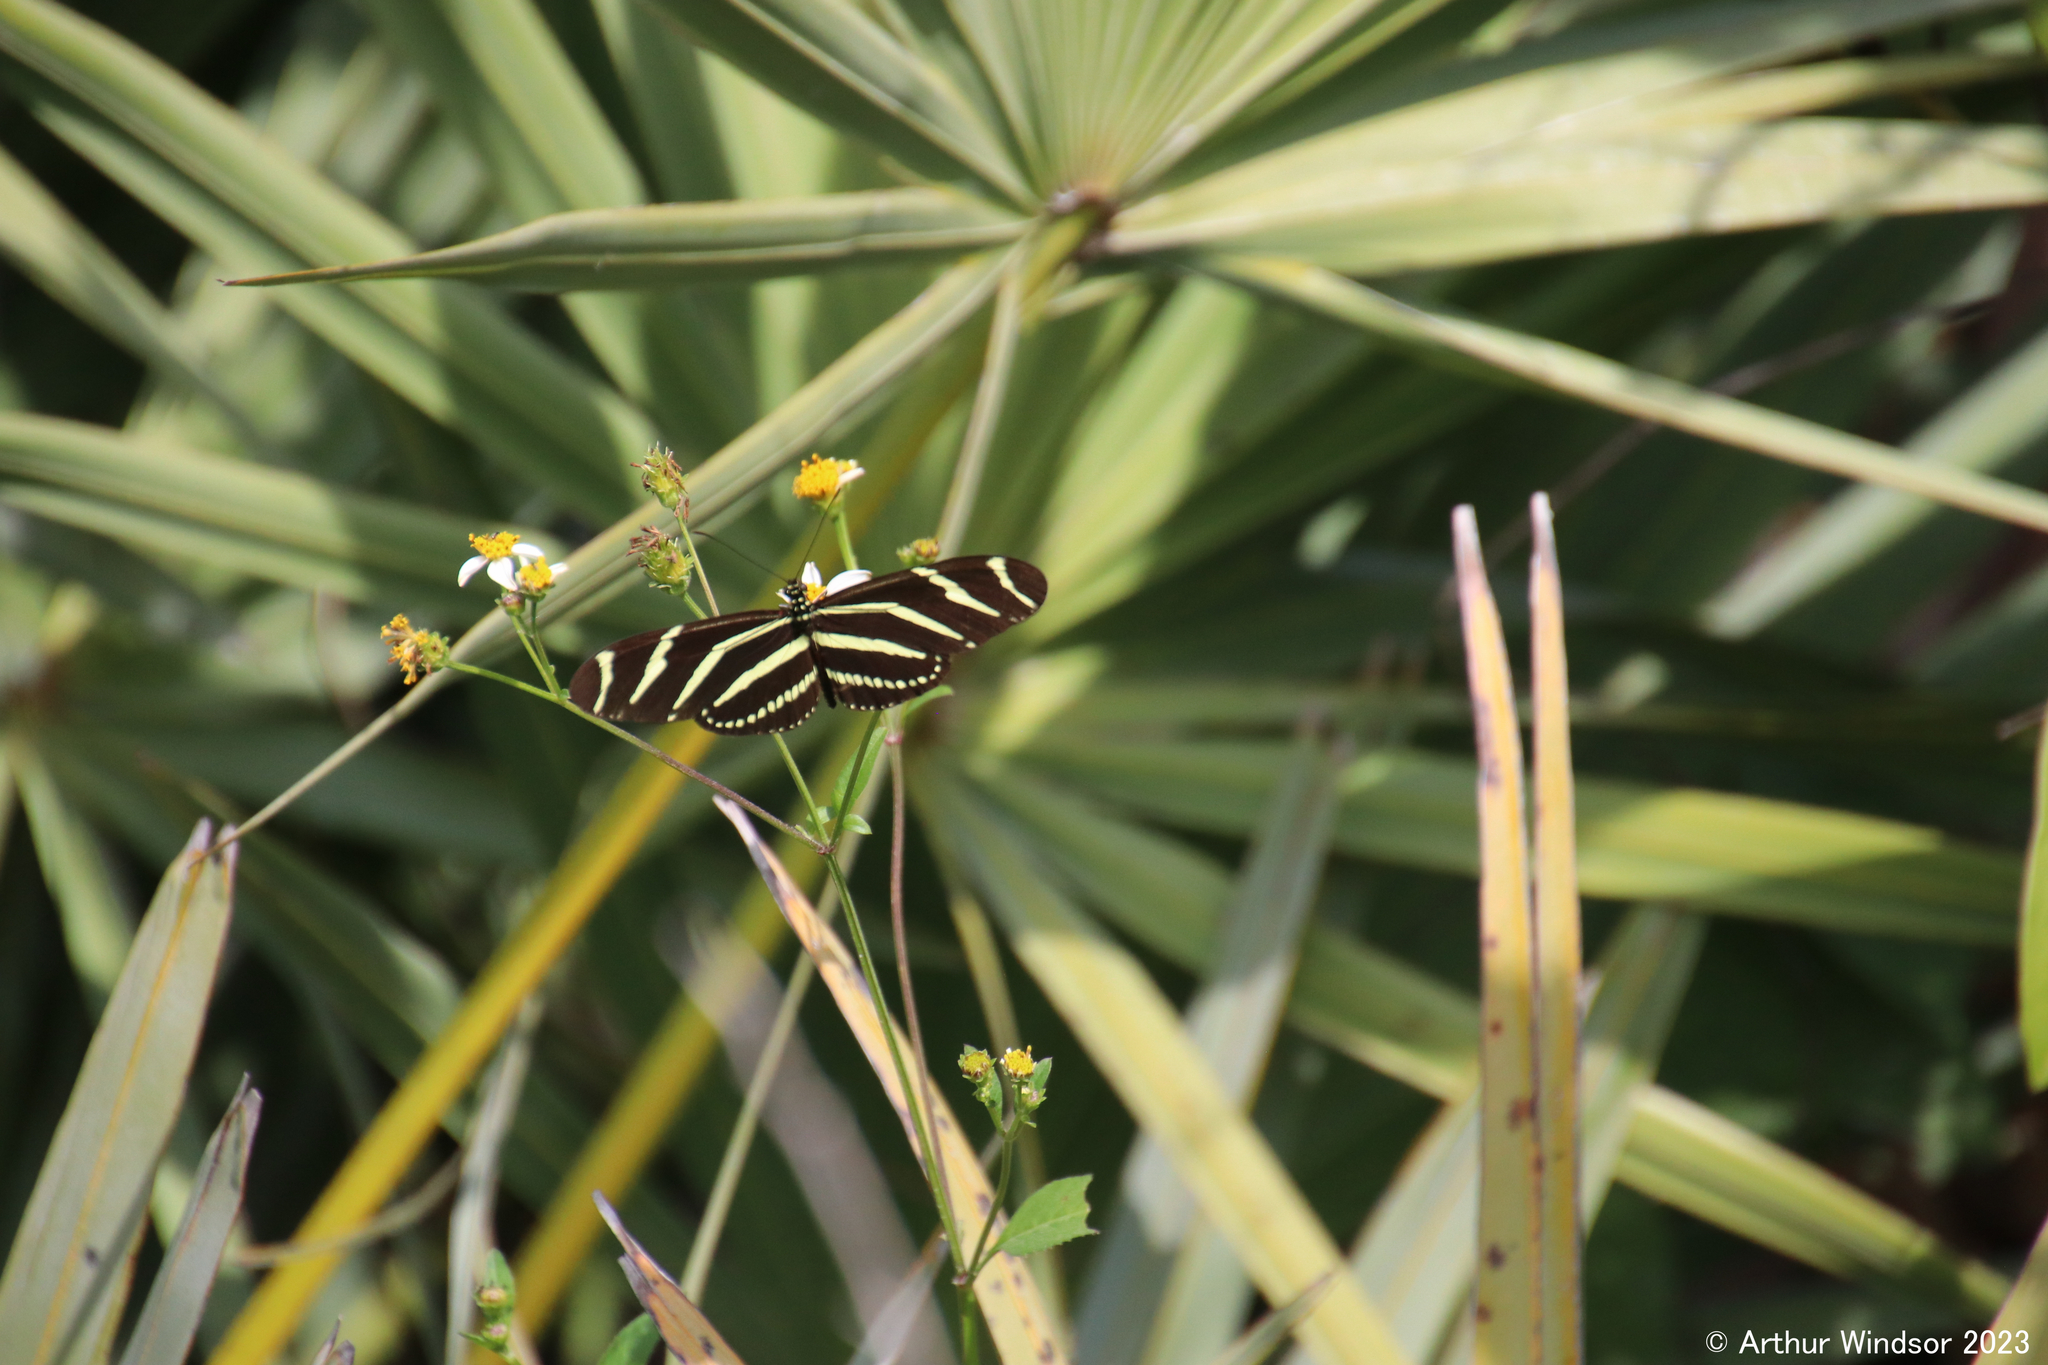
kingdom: Animalia
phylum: Arthropoda
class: Insecta
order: Lepidoptera
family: Nymphalidae
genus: Heliconius
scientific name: Heliconius charithonia
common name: Zebra long wing
